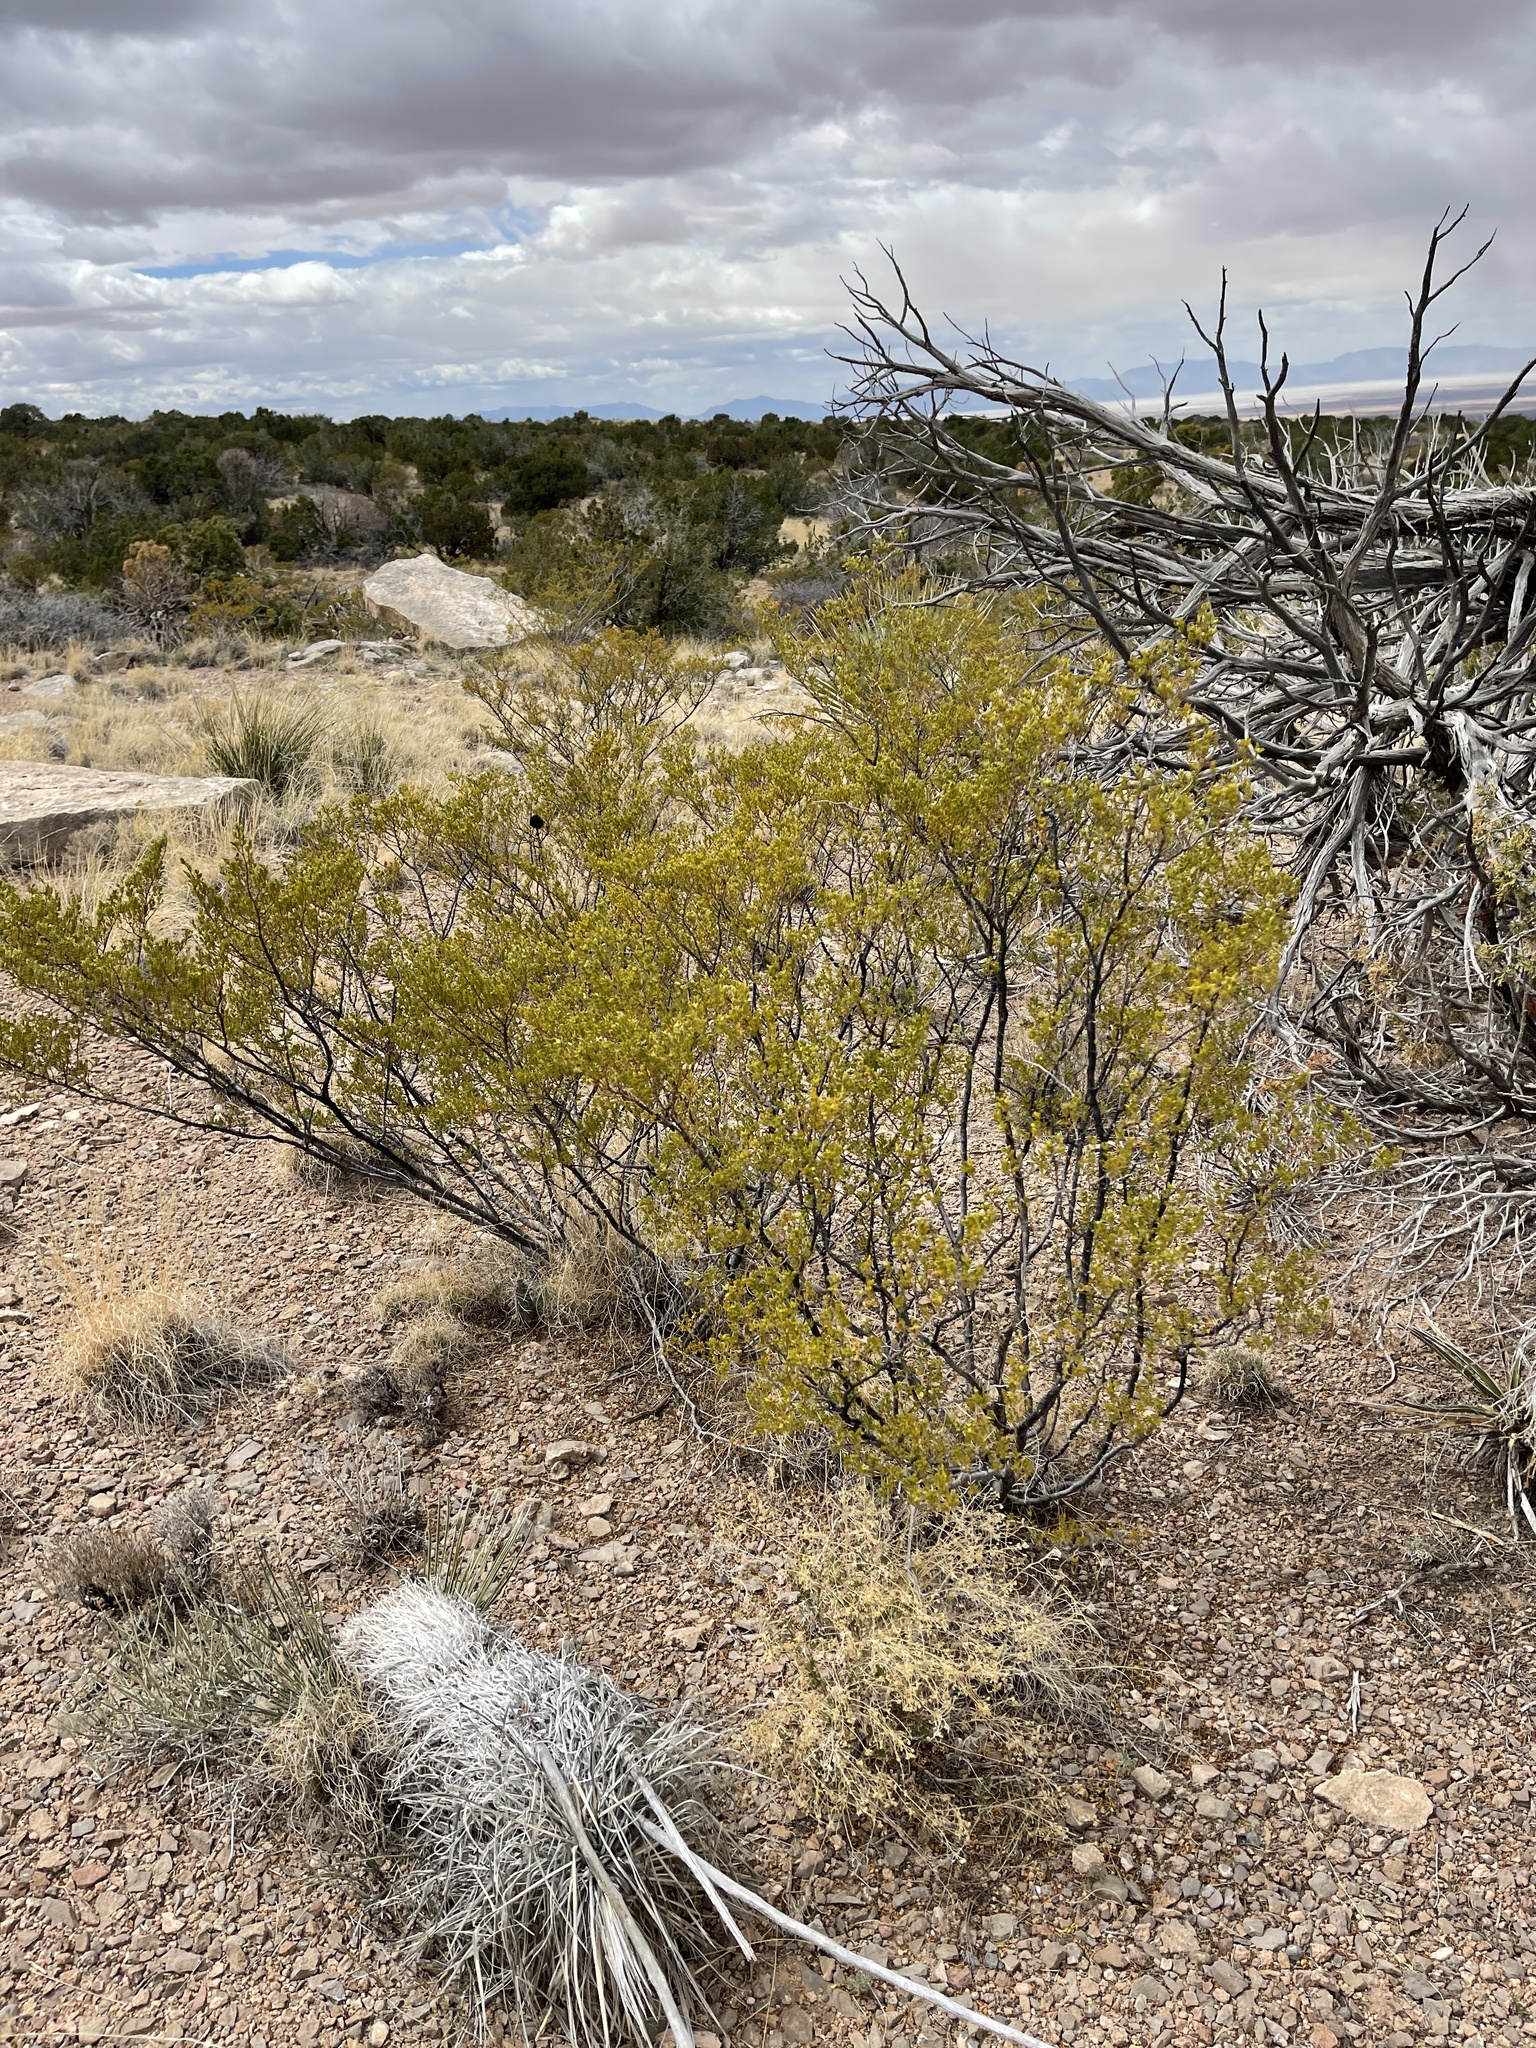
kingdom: Plantae
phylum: Tracheophyta
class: Magnoliopsida
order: Zygophyllales
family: Zygophyllaceae
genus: Larrea
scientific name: Larrea tridentata
